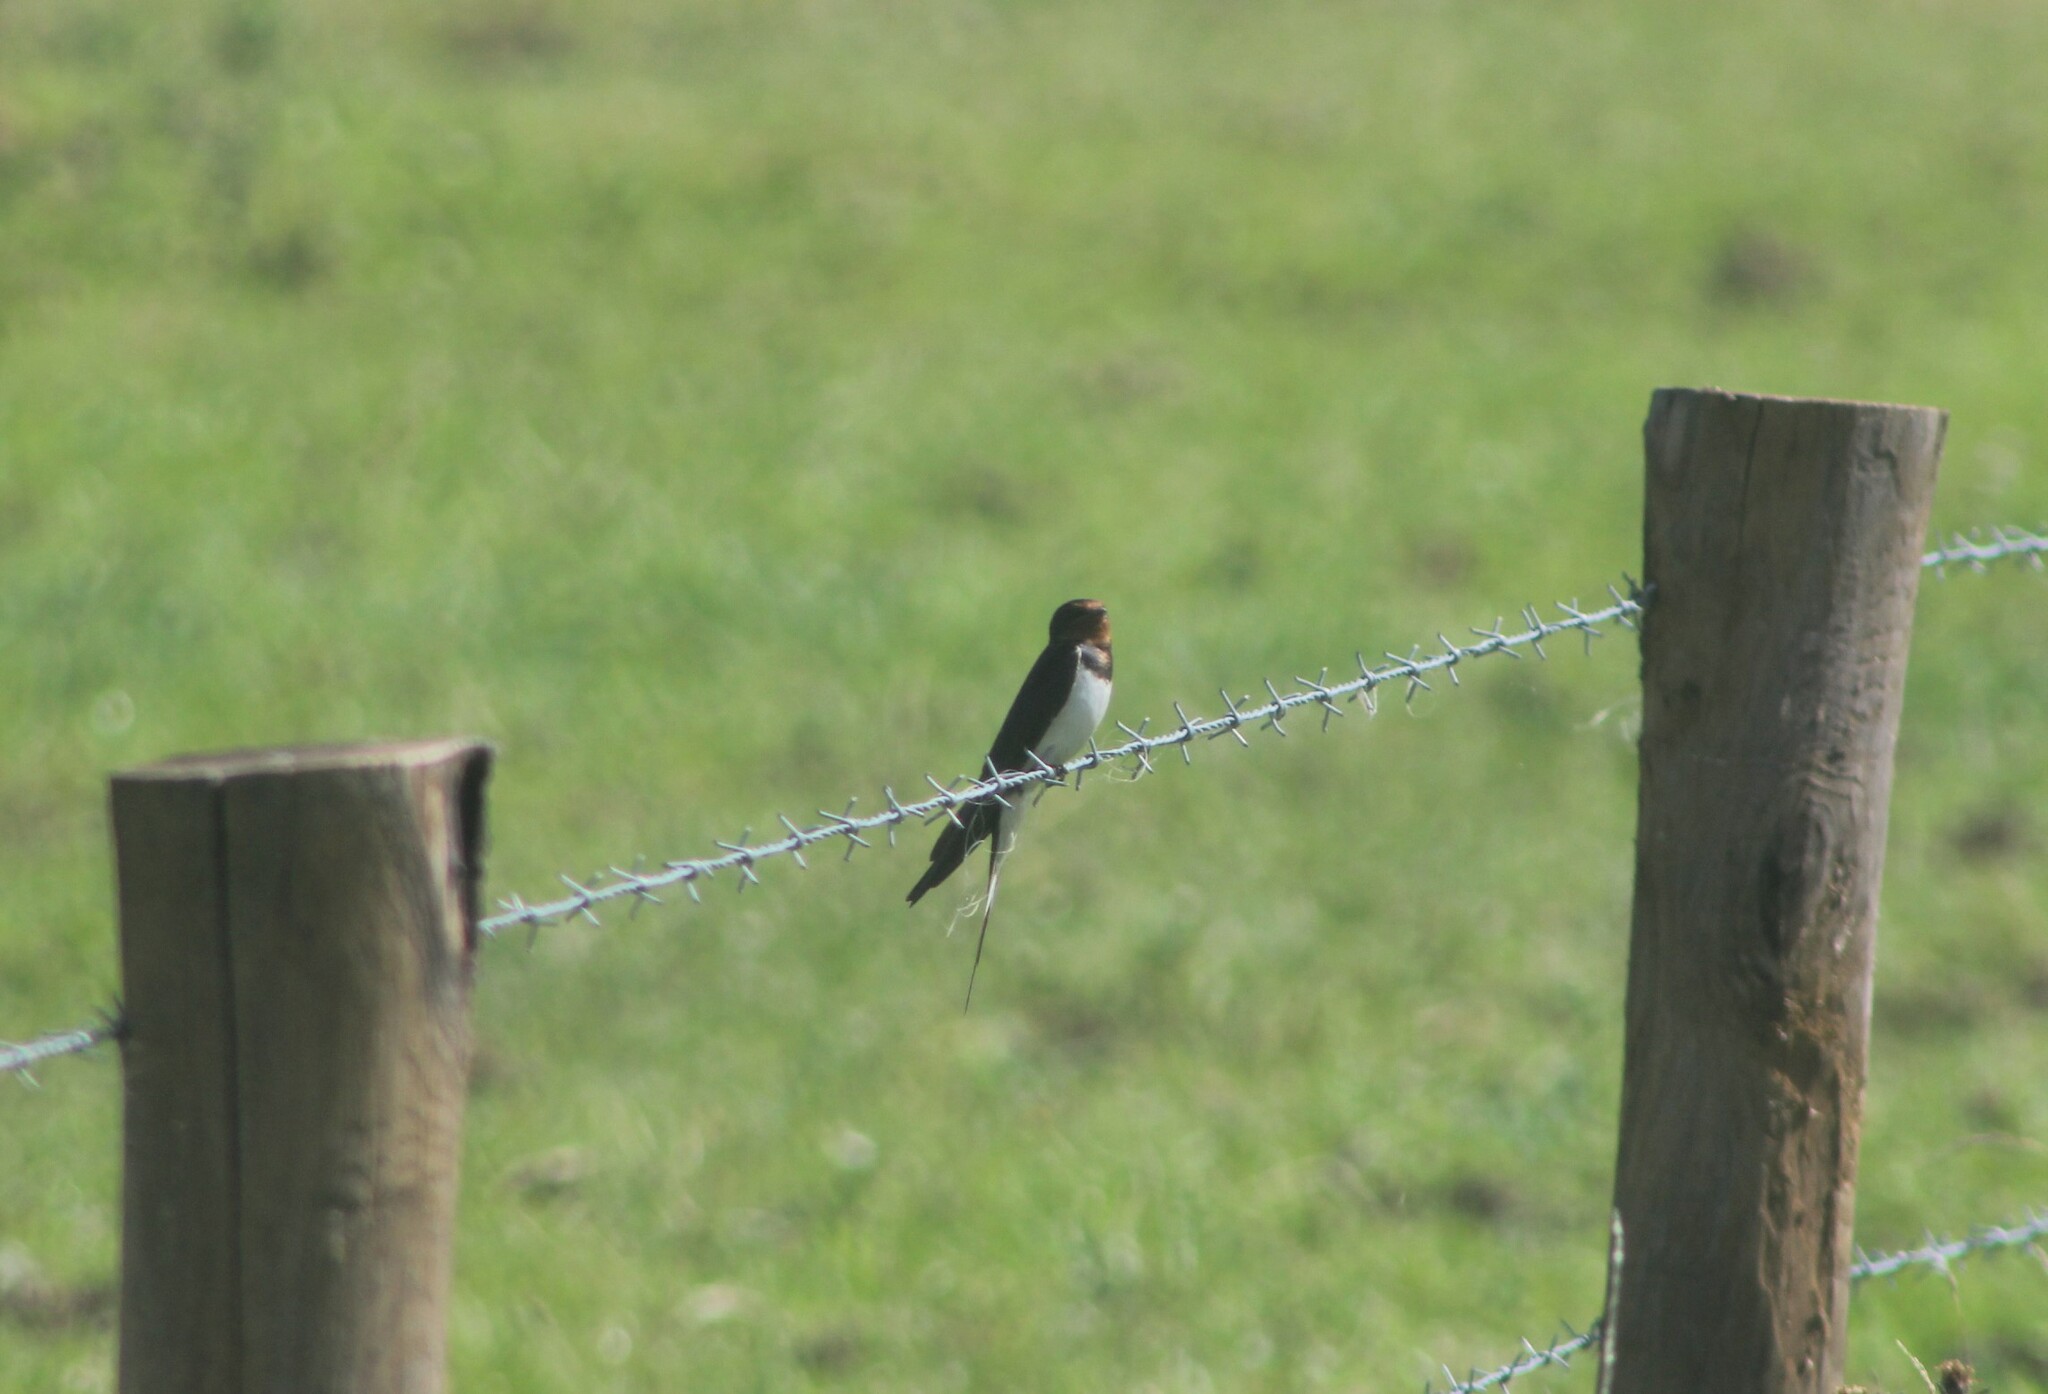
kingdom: Animalia
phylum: Chordata
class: Aves
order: Passeriformes
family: Hirundinidae
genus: Hirundo
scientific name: Hirundo rustica
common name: Barn swallow
